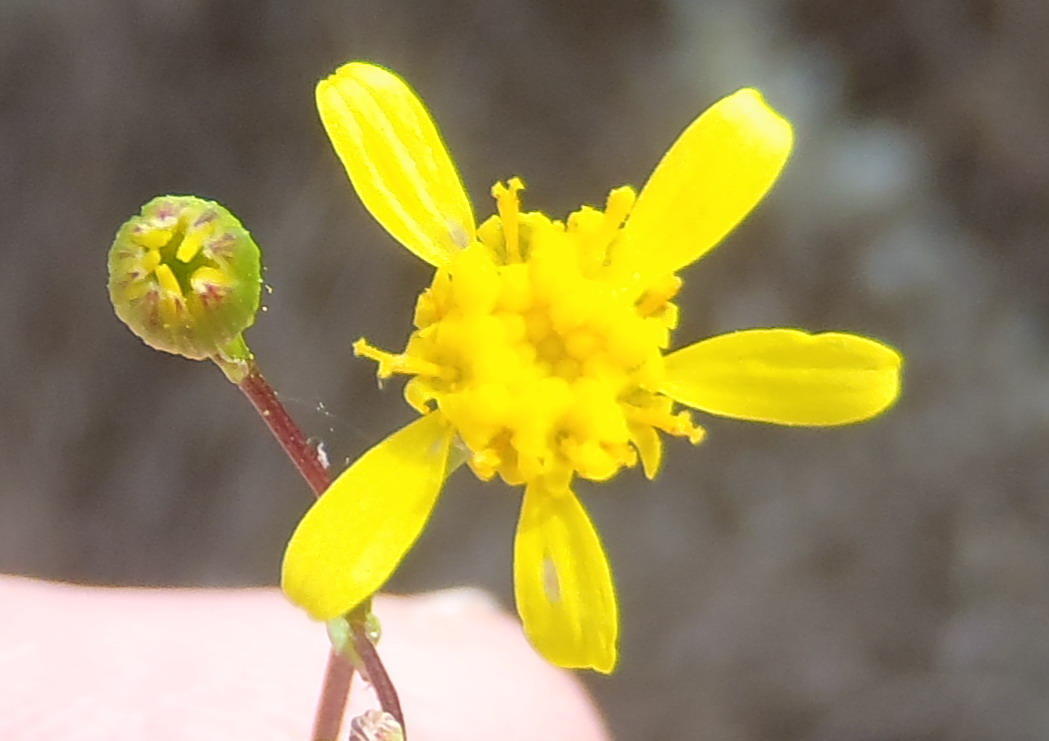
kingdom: Plantae
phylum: Tracheophyta
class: Magnoliopsida
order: Asterales
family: Asteraceae
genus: Cineraria
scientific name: Cineraria platycarpa
